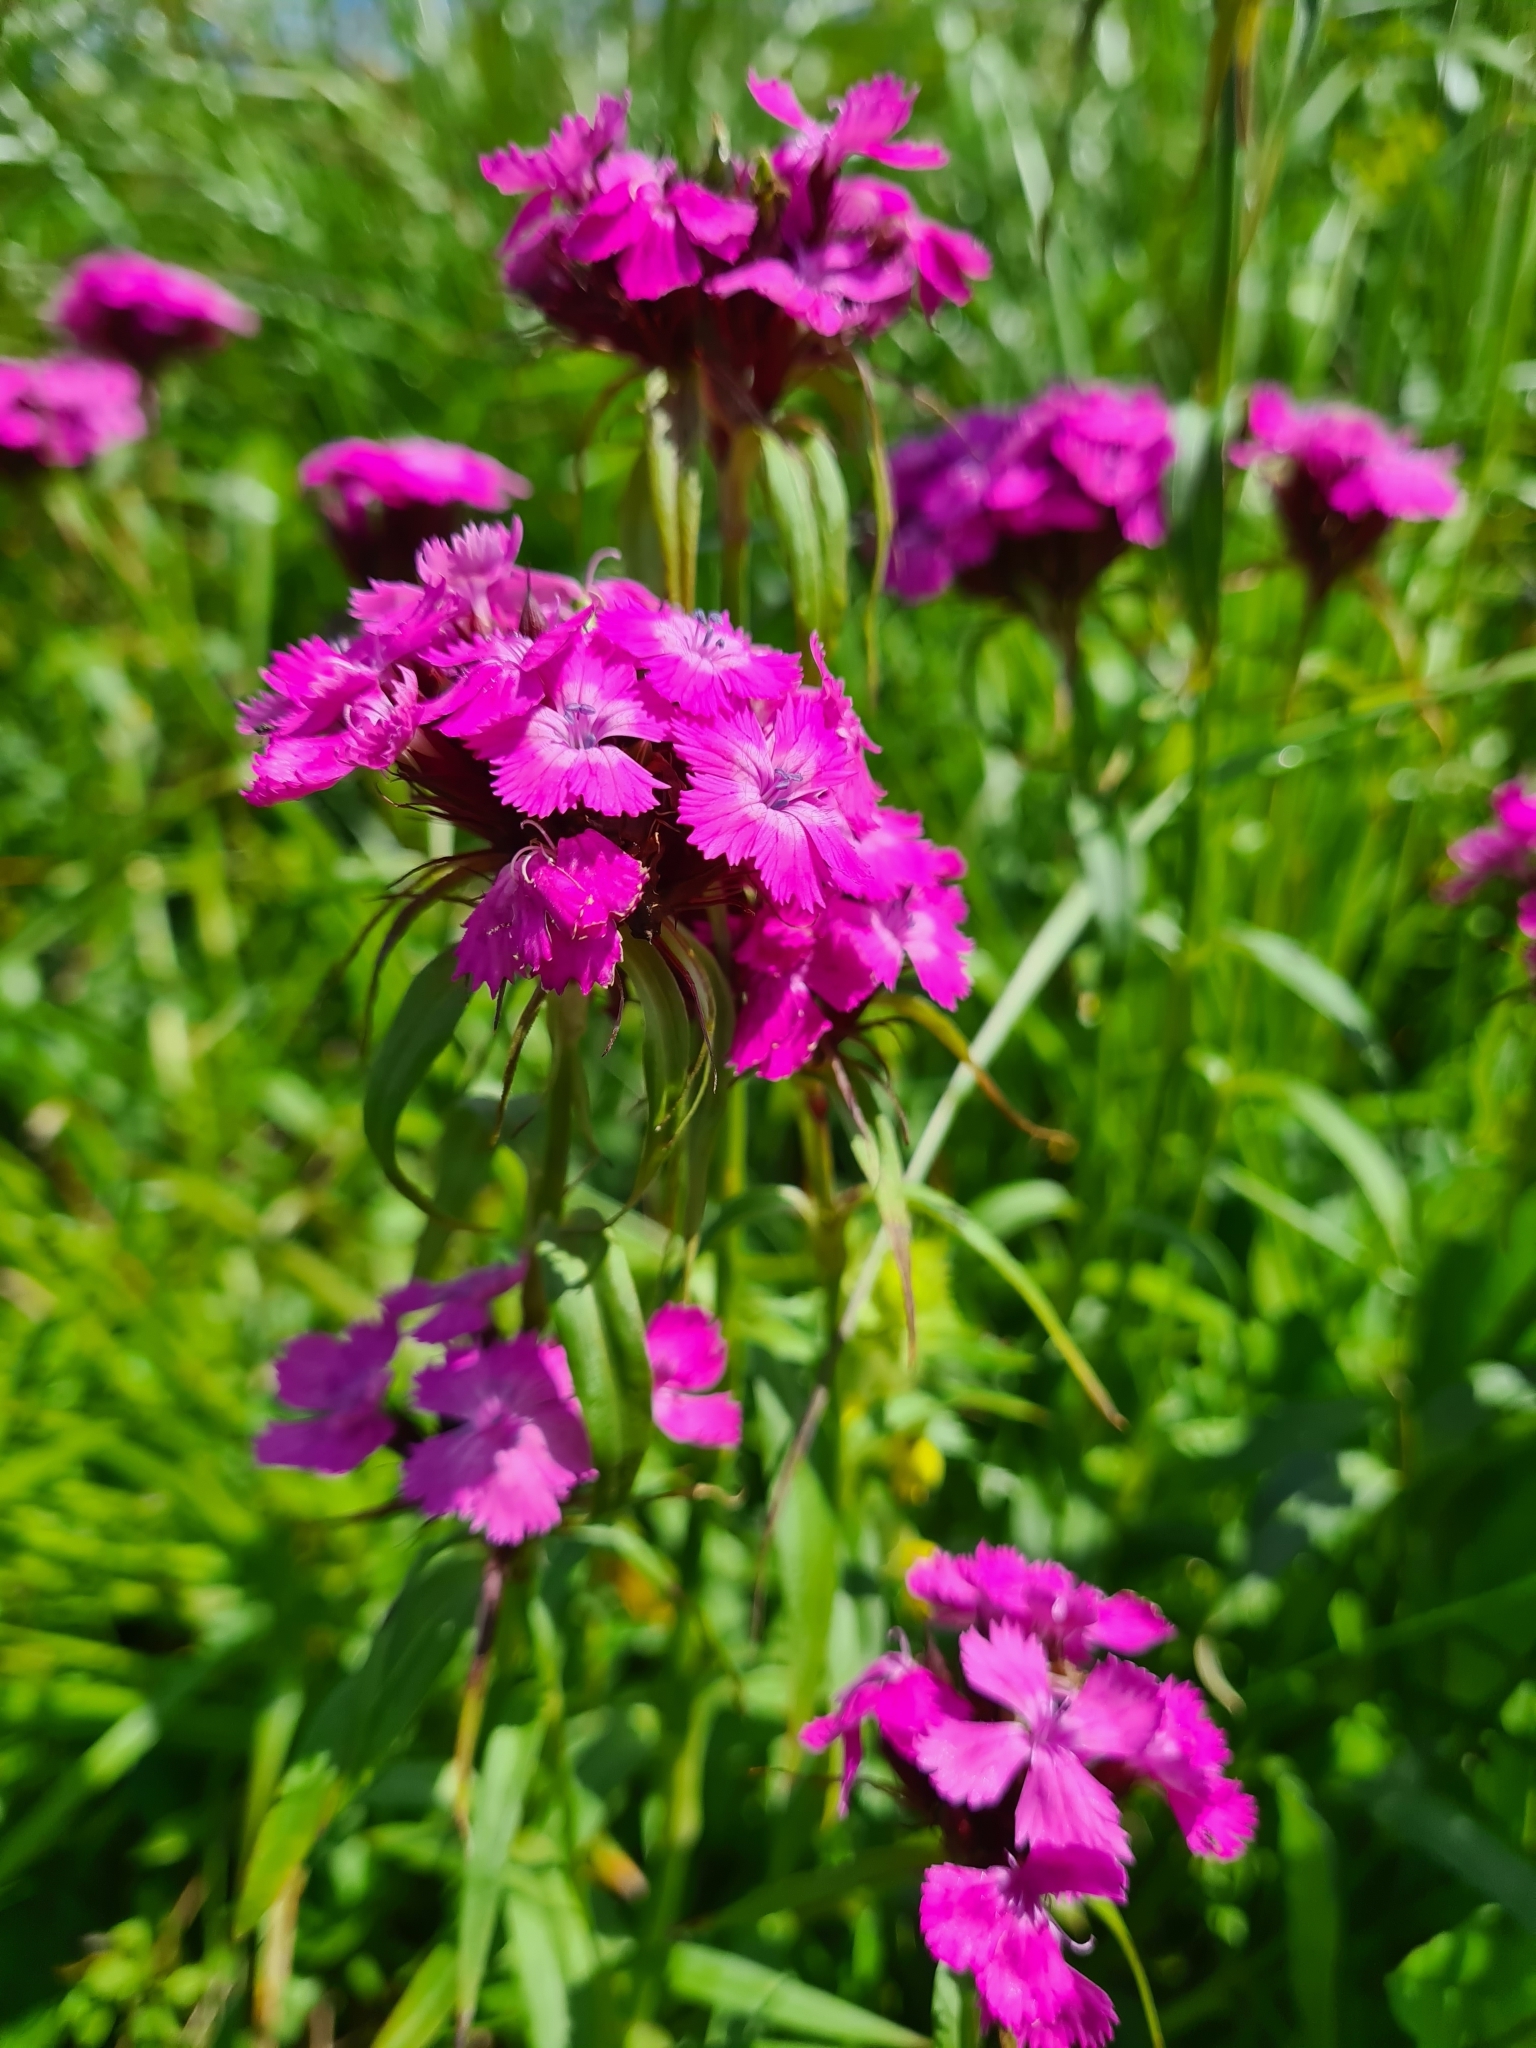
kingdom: Plantae
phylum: Tracheophyta
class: Magnoliopsida
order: Caryophyllales
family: Caryophyllaceae
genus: Dianthus
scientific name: Dianthus barbatus
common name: Sweet-william
